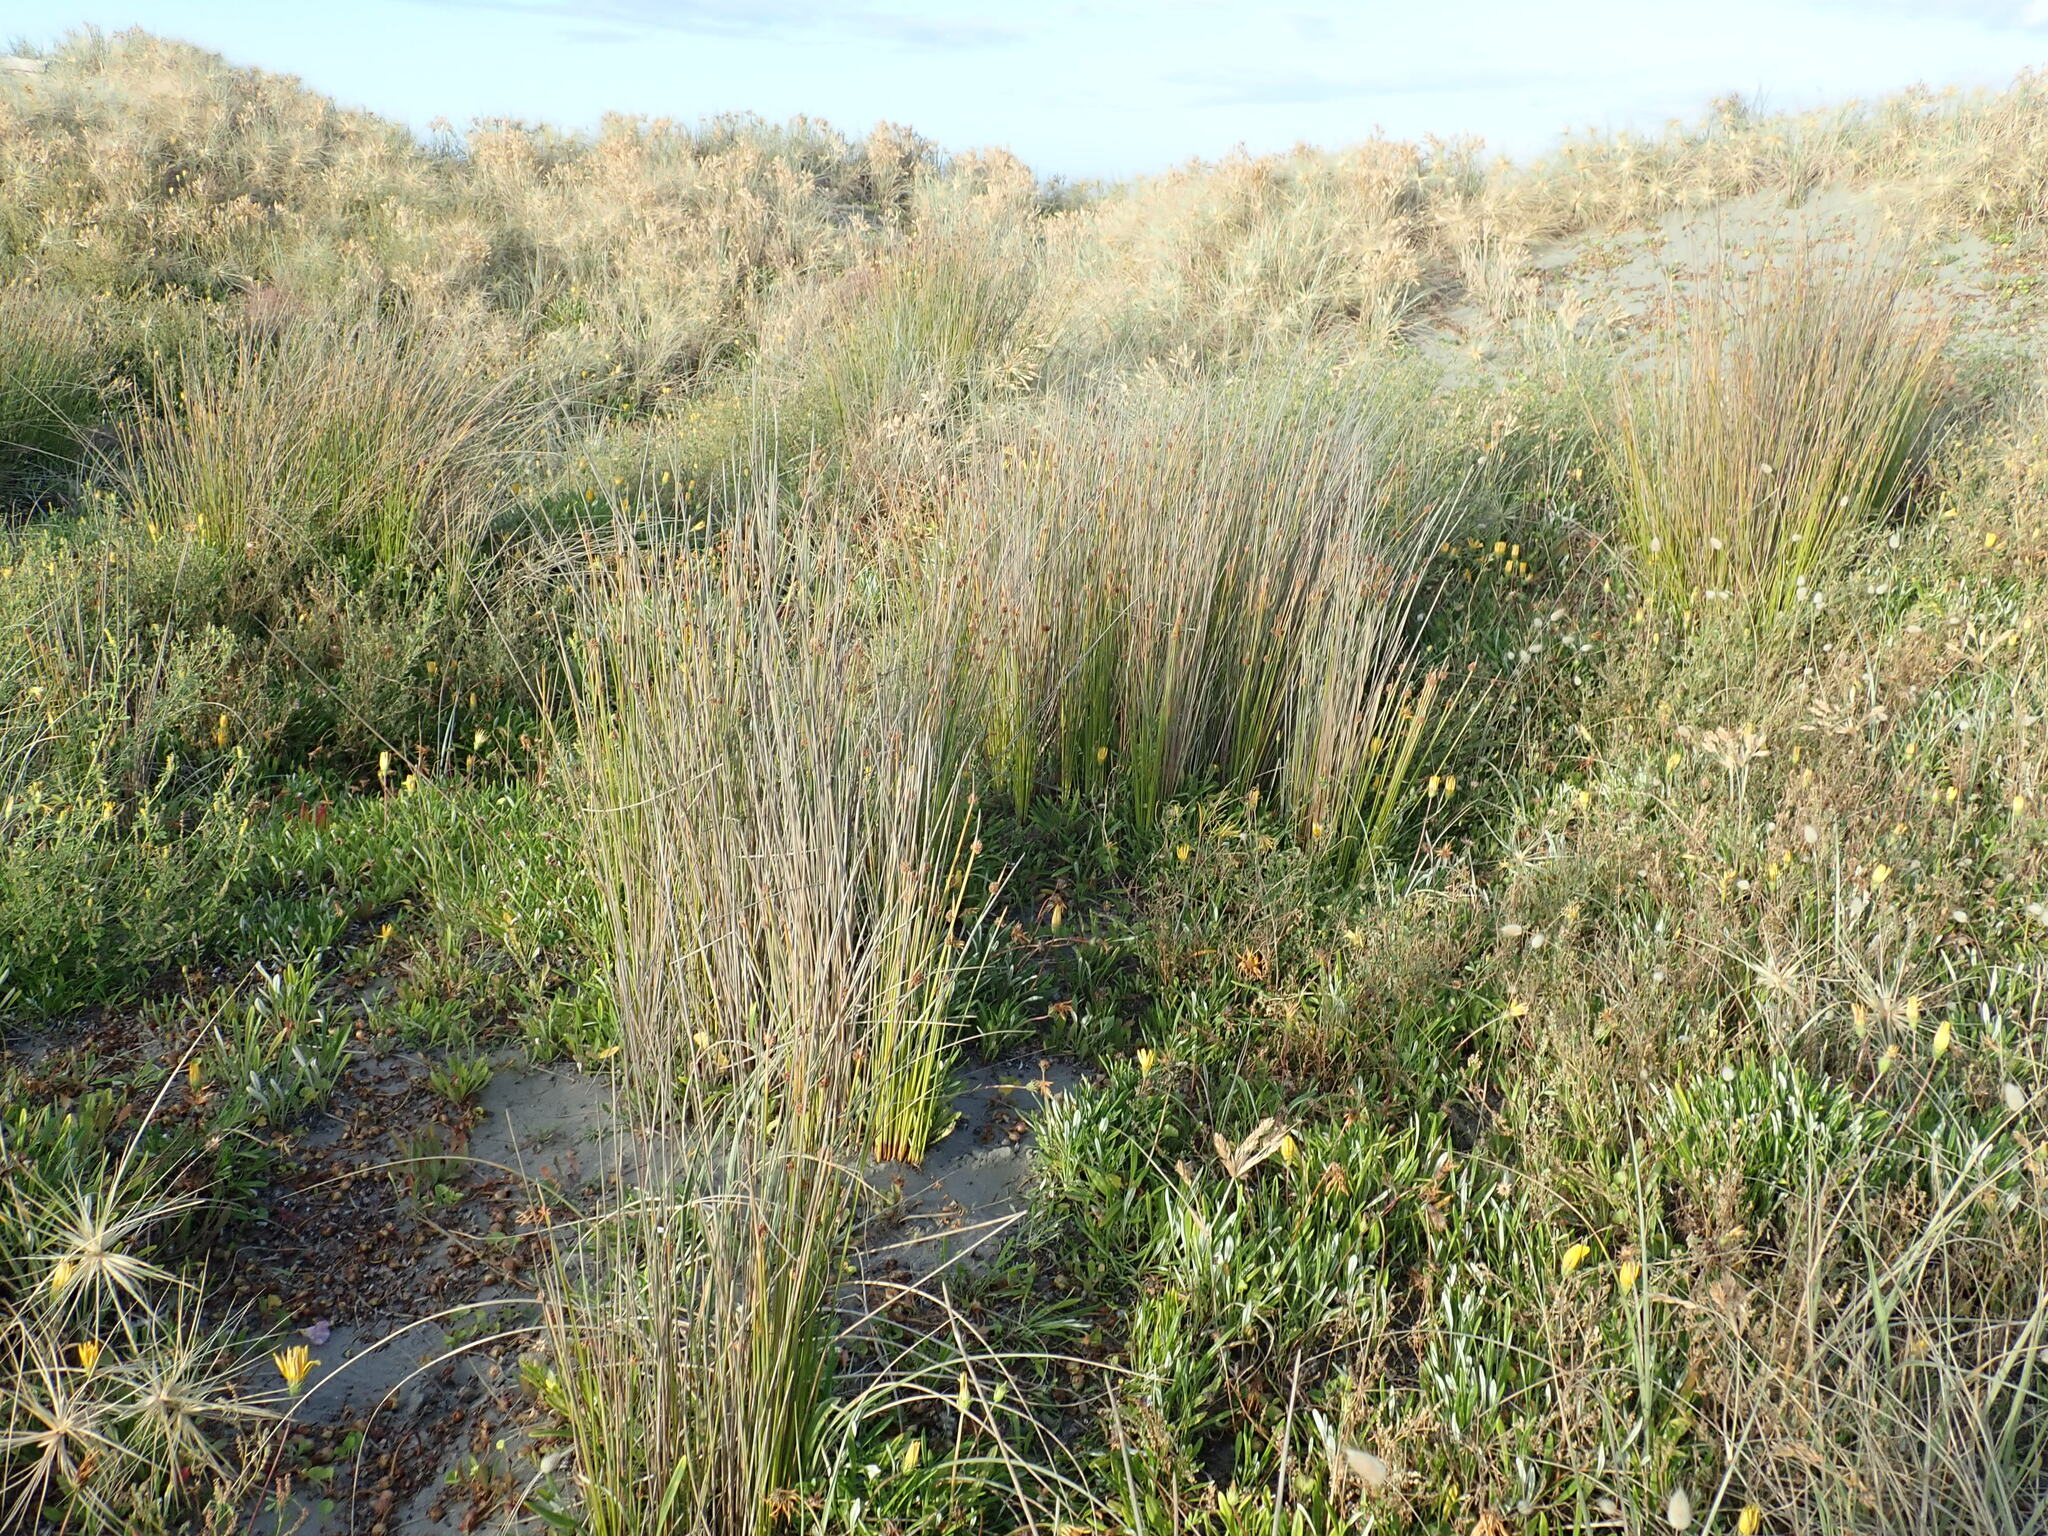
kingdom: Plantae
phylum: Tracheophyta
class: Liliopsida
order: Poales
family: Cyperaceae
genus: Ficinia
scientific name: Ficinia nodosa
